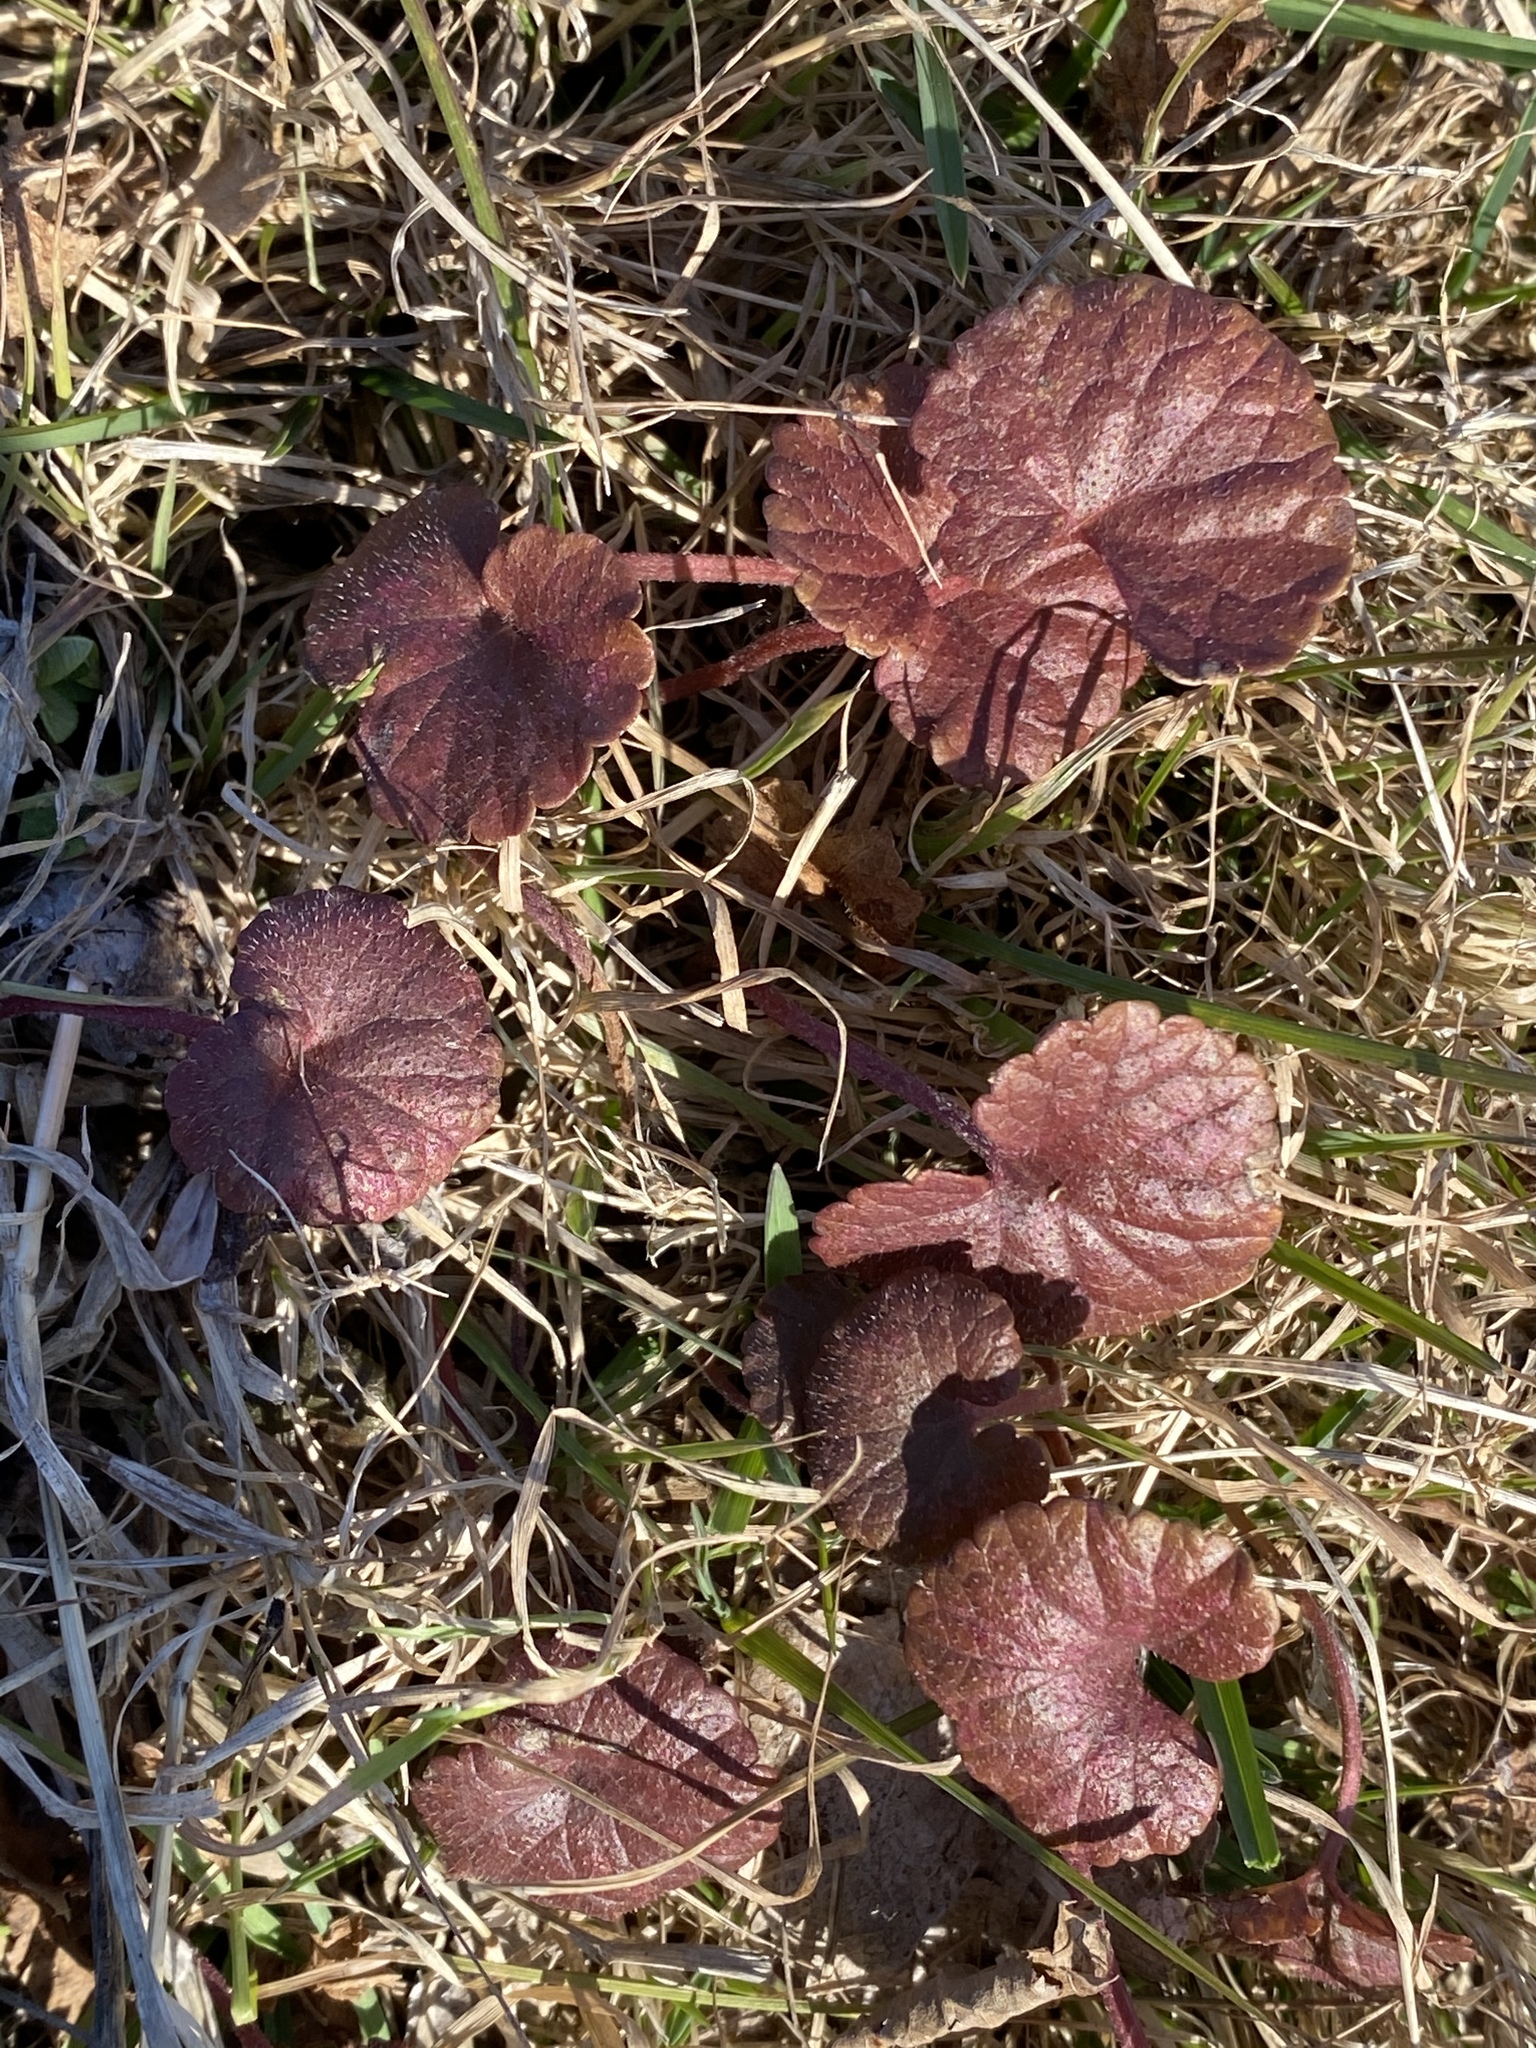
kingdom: Plantae
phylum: Tracheophyta
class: Magnoliopsida
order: Lamiales
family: Lamiaceae
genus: Glechoma
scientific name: Glechoma hederacea
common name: Ground ivy
